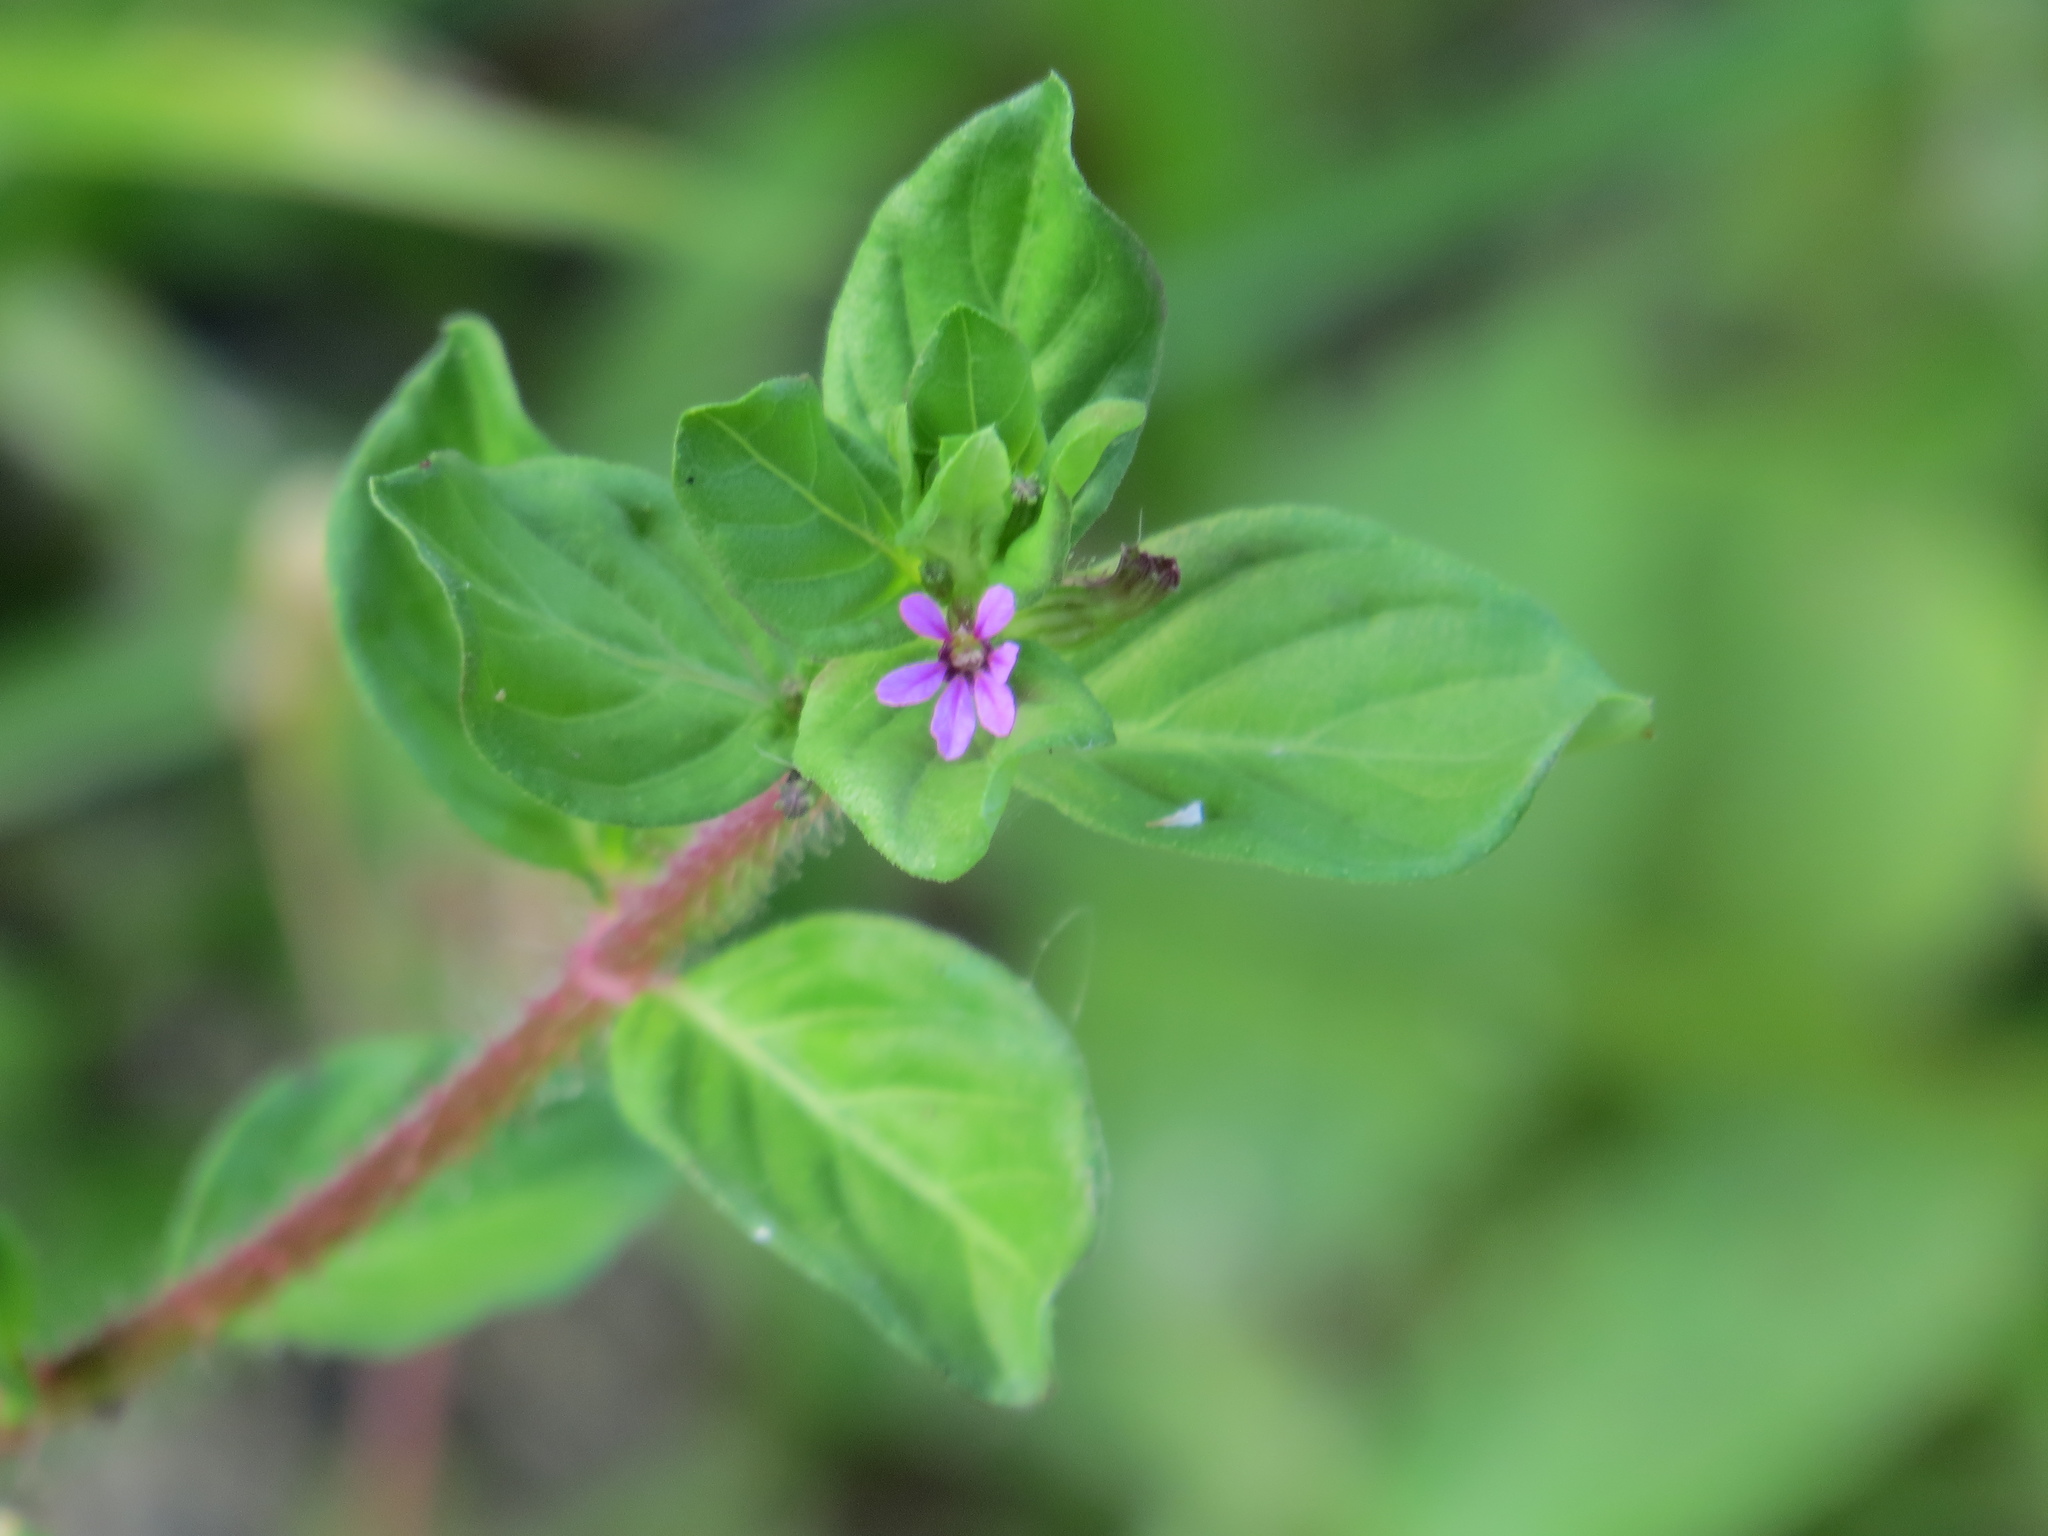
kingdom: Plantae
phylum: Tracheophyta
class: Magnoliopsida
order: Myrtales
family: Lythraceae
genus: Cuphea
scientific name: Cuphea carthagenensis
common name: Colombian waxweed
